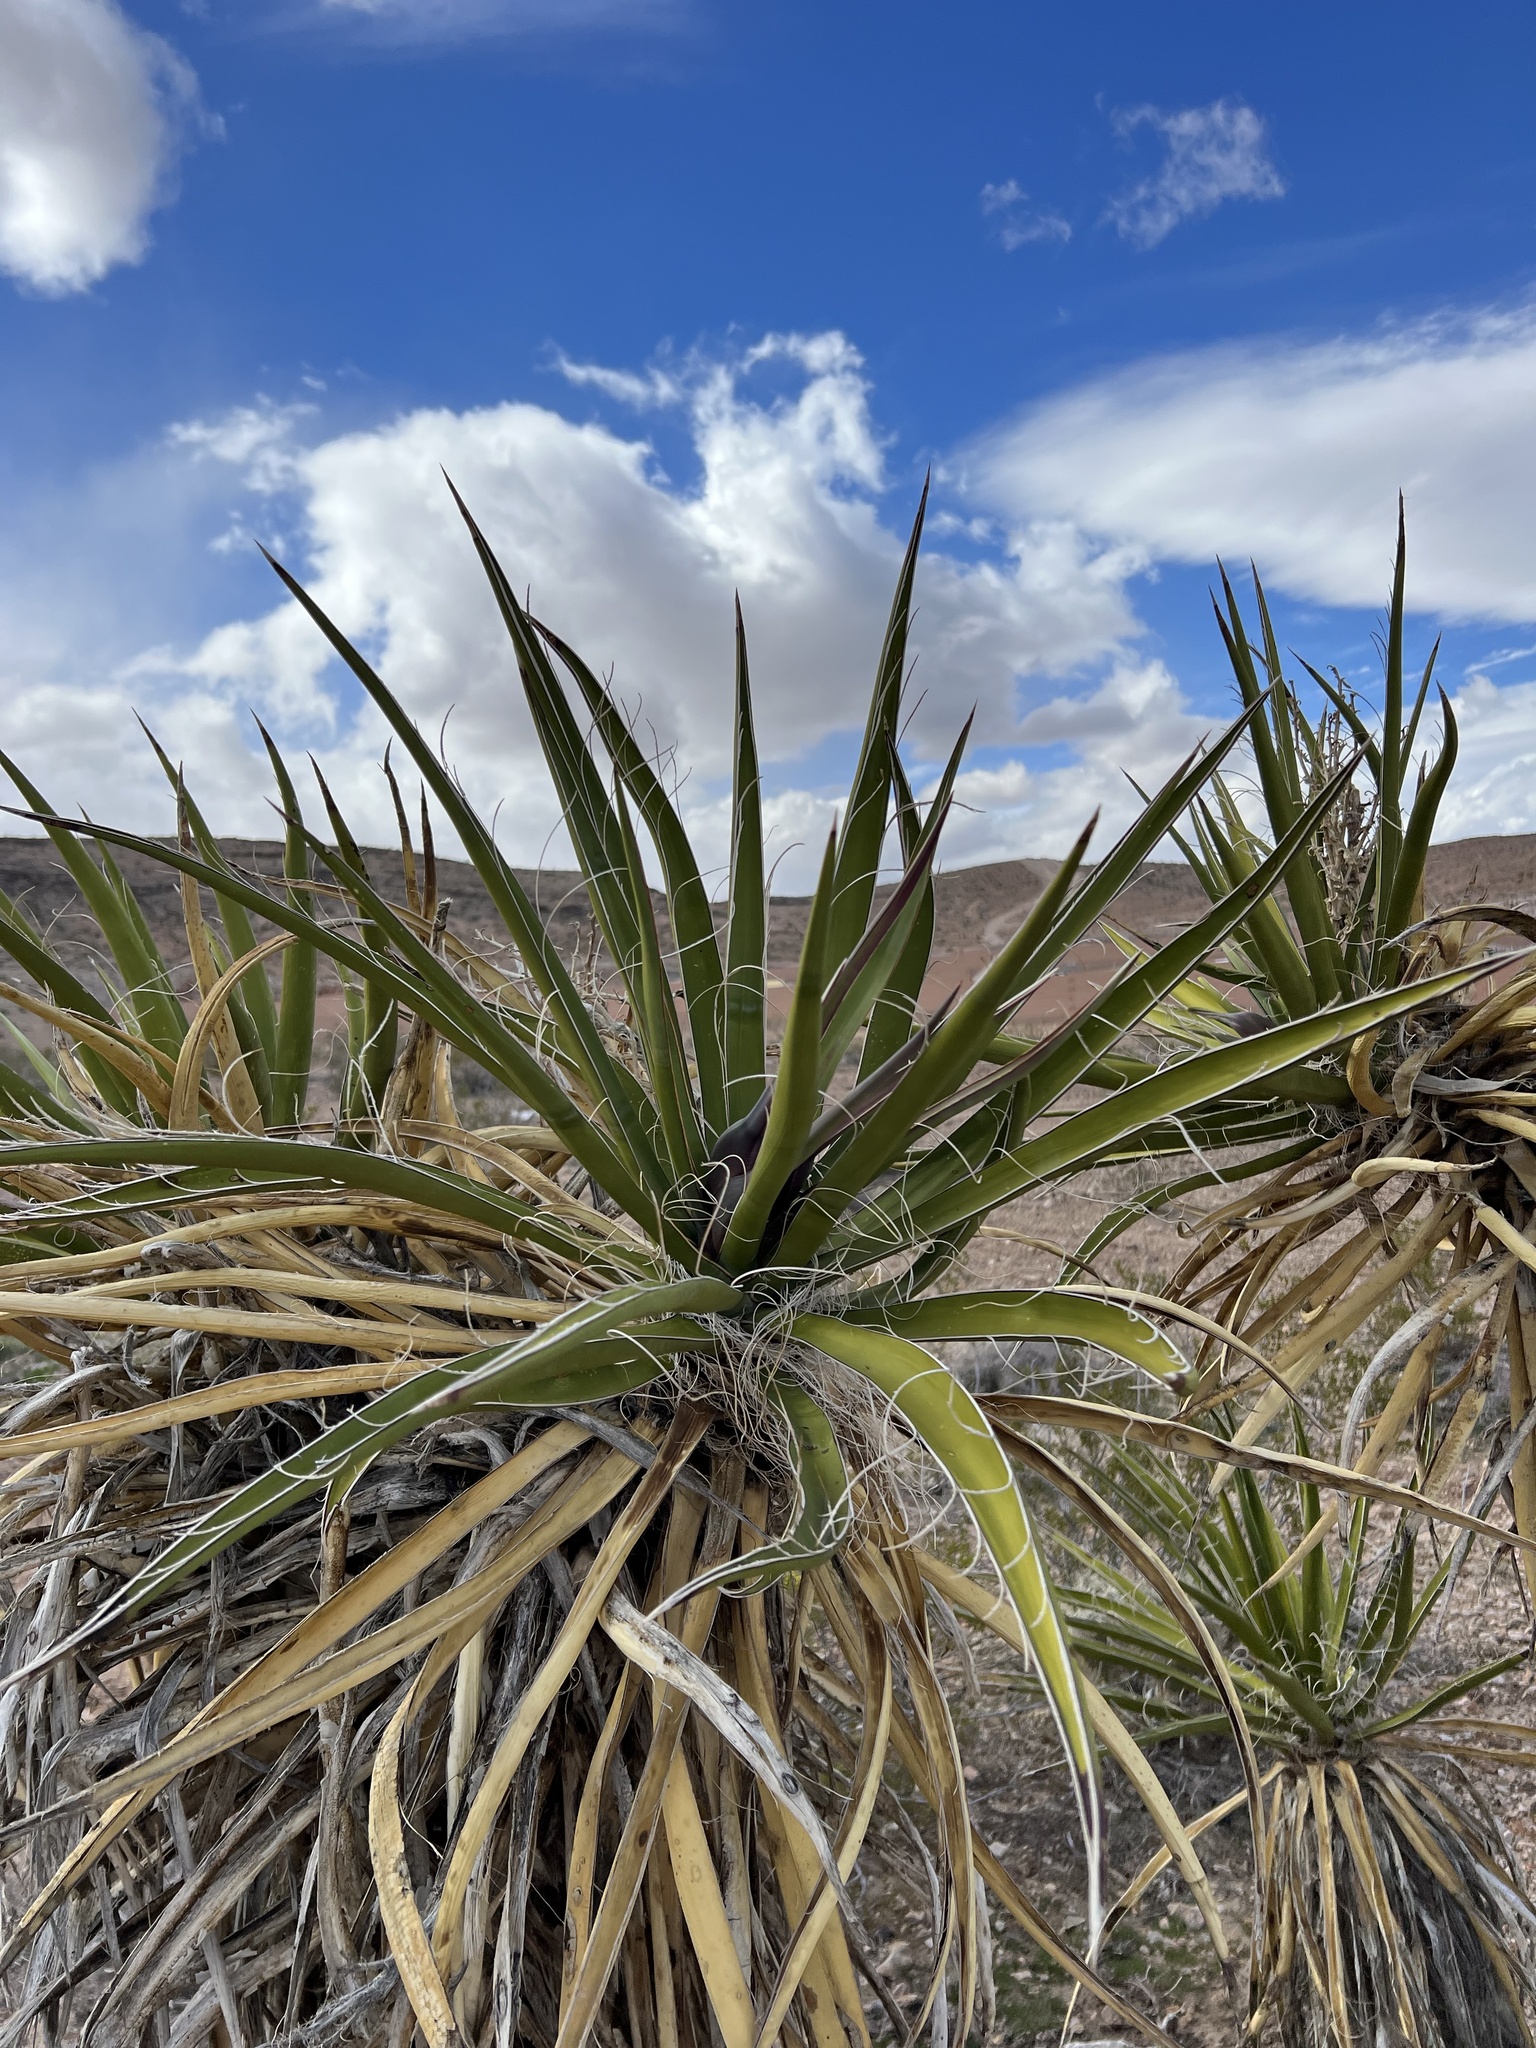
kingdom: Plantae
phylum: Tracheophyta
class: Liliopsida
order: Asparagales
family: Asparagaceae
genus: Yucca
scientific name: Yucca schidigera
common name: Mojave yucca
